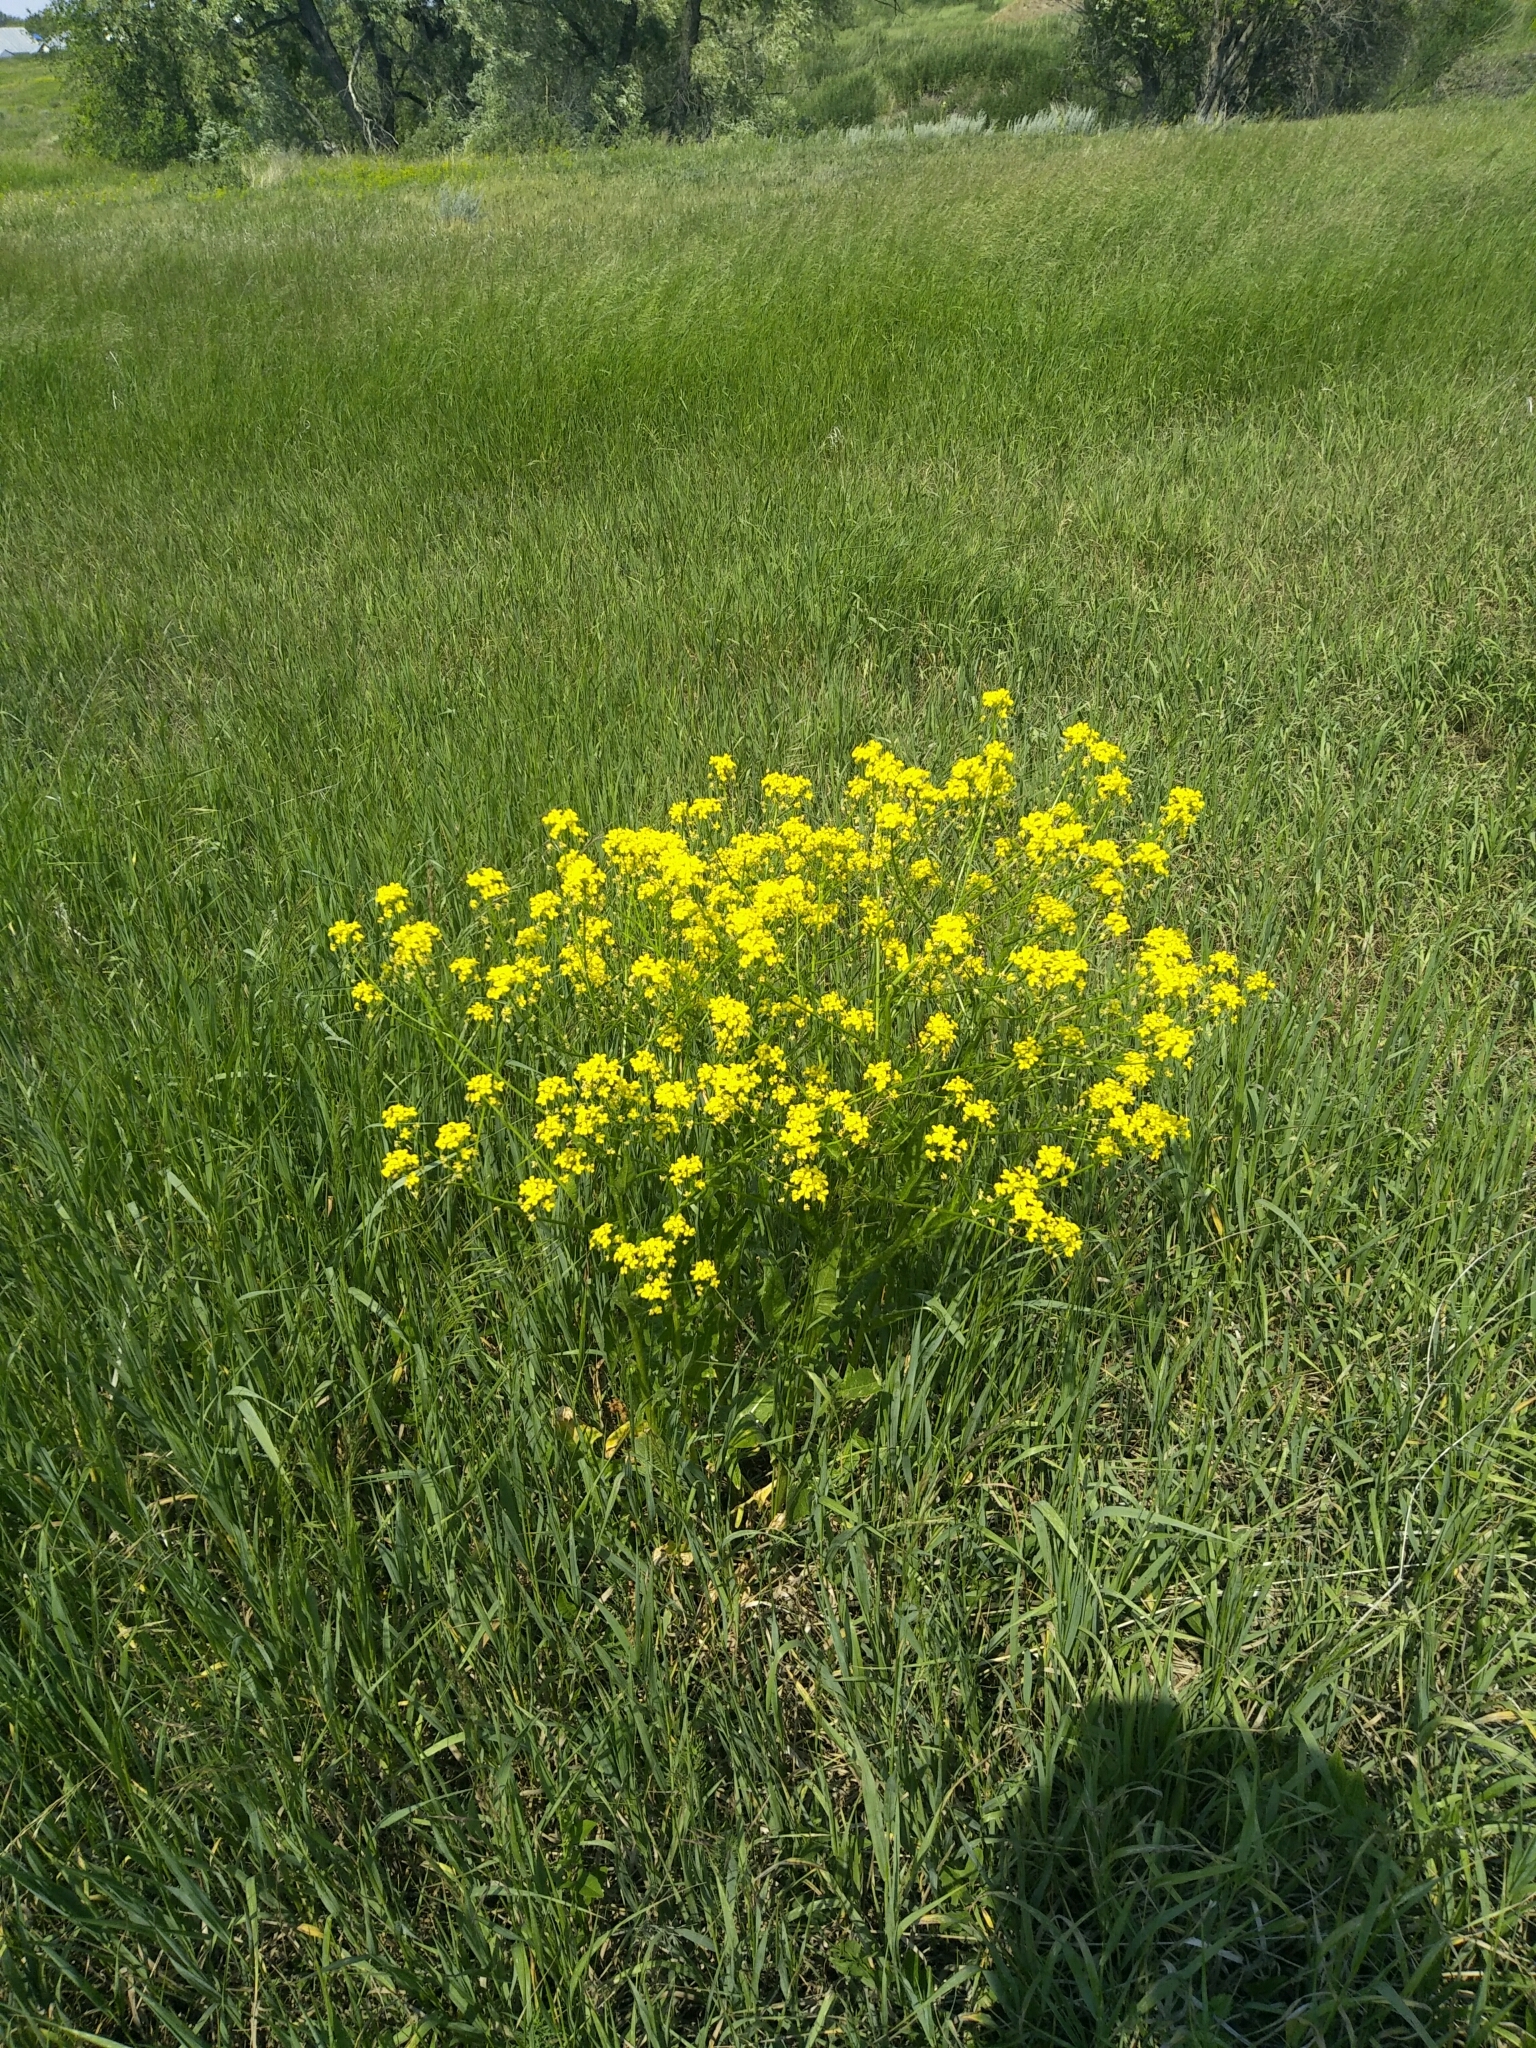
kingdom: Plantae
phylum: Tracheophyta
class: Magnoliopsida
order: Brassicales
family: Brassicaceae
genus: Bunias
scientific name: Bunias orientalis
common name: Warty-cabbage
